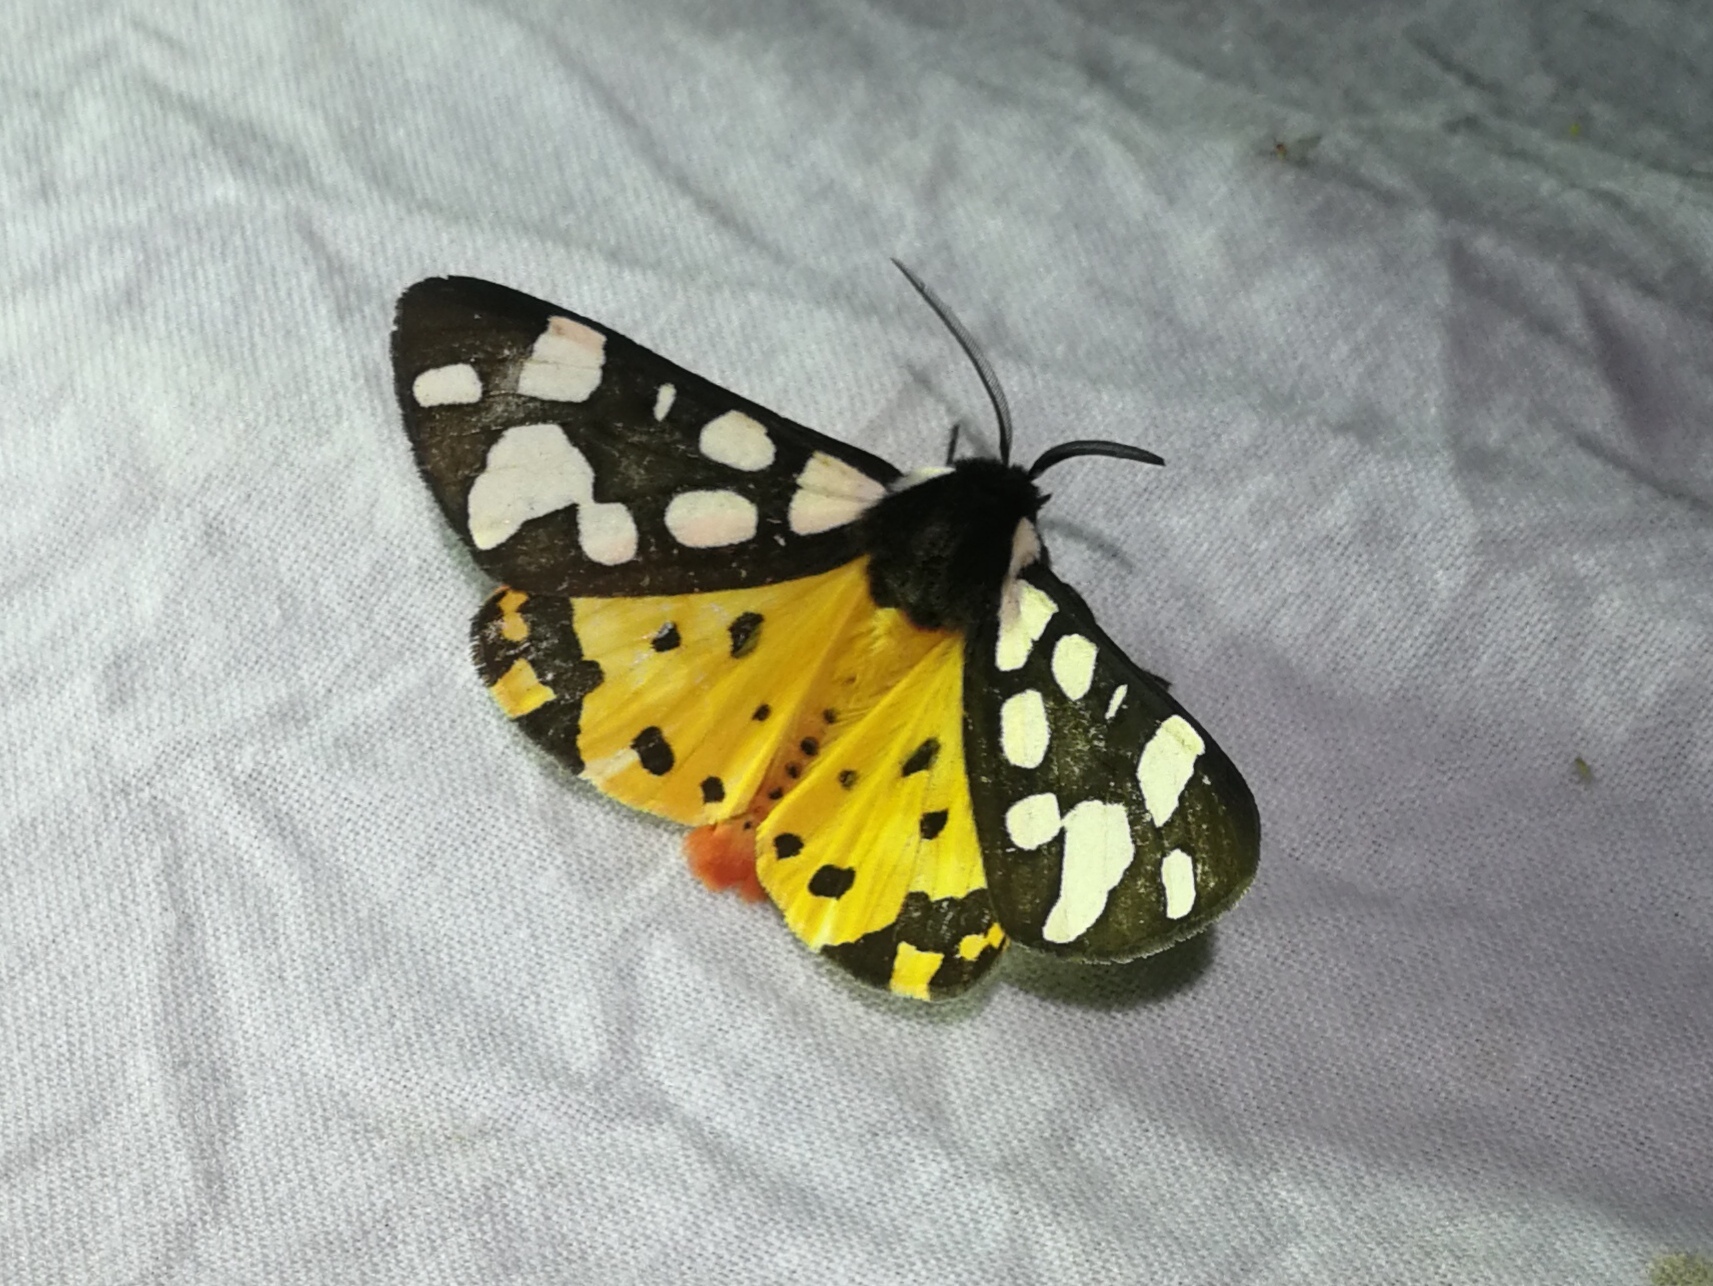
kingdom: Animalia
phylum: Arthropoda
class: Insecta
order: Lepidoptera
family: Erebidae
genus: Epicallia
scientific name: Epicallia villica
